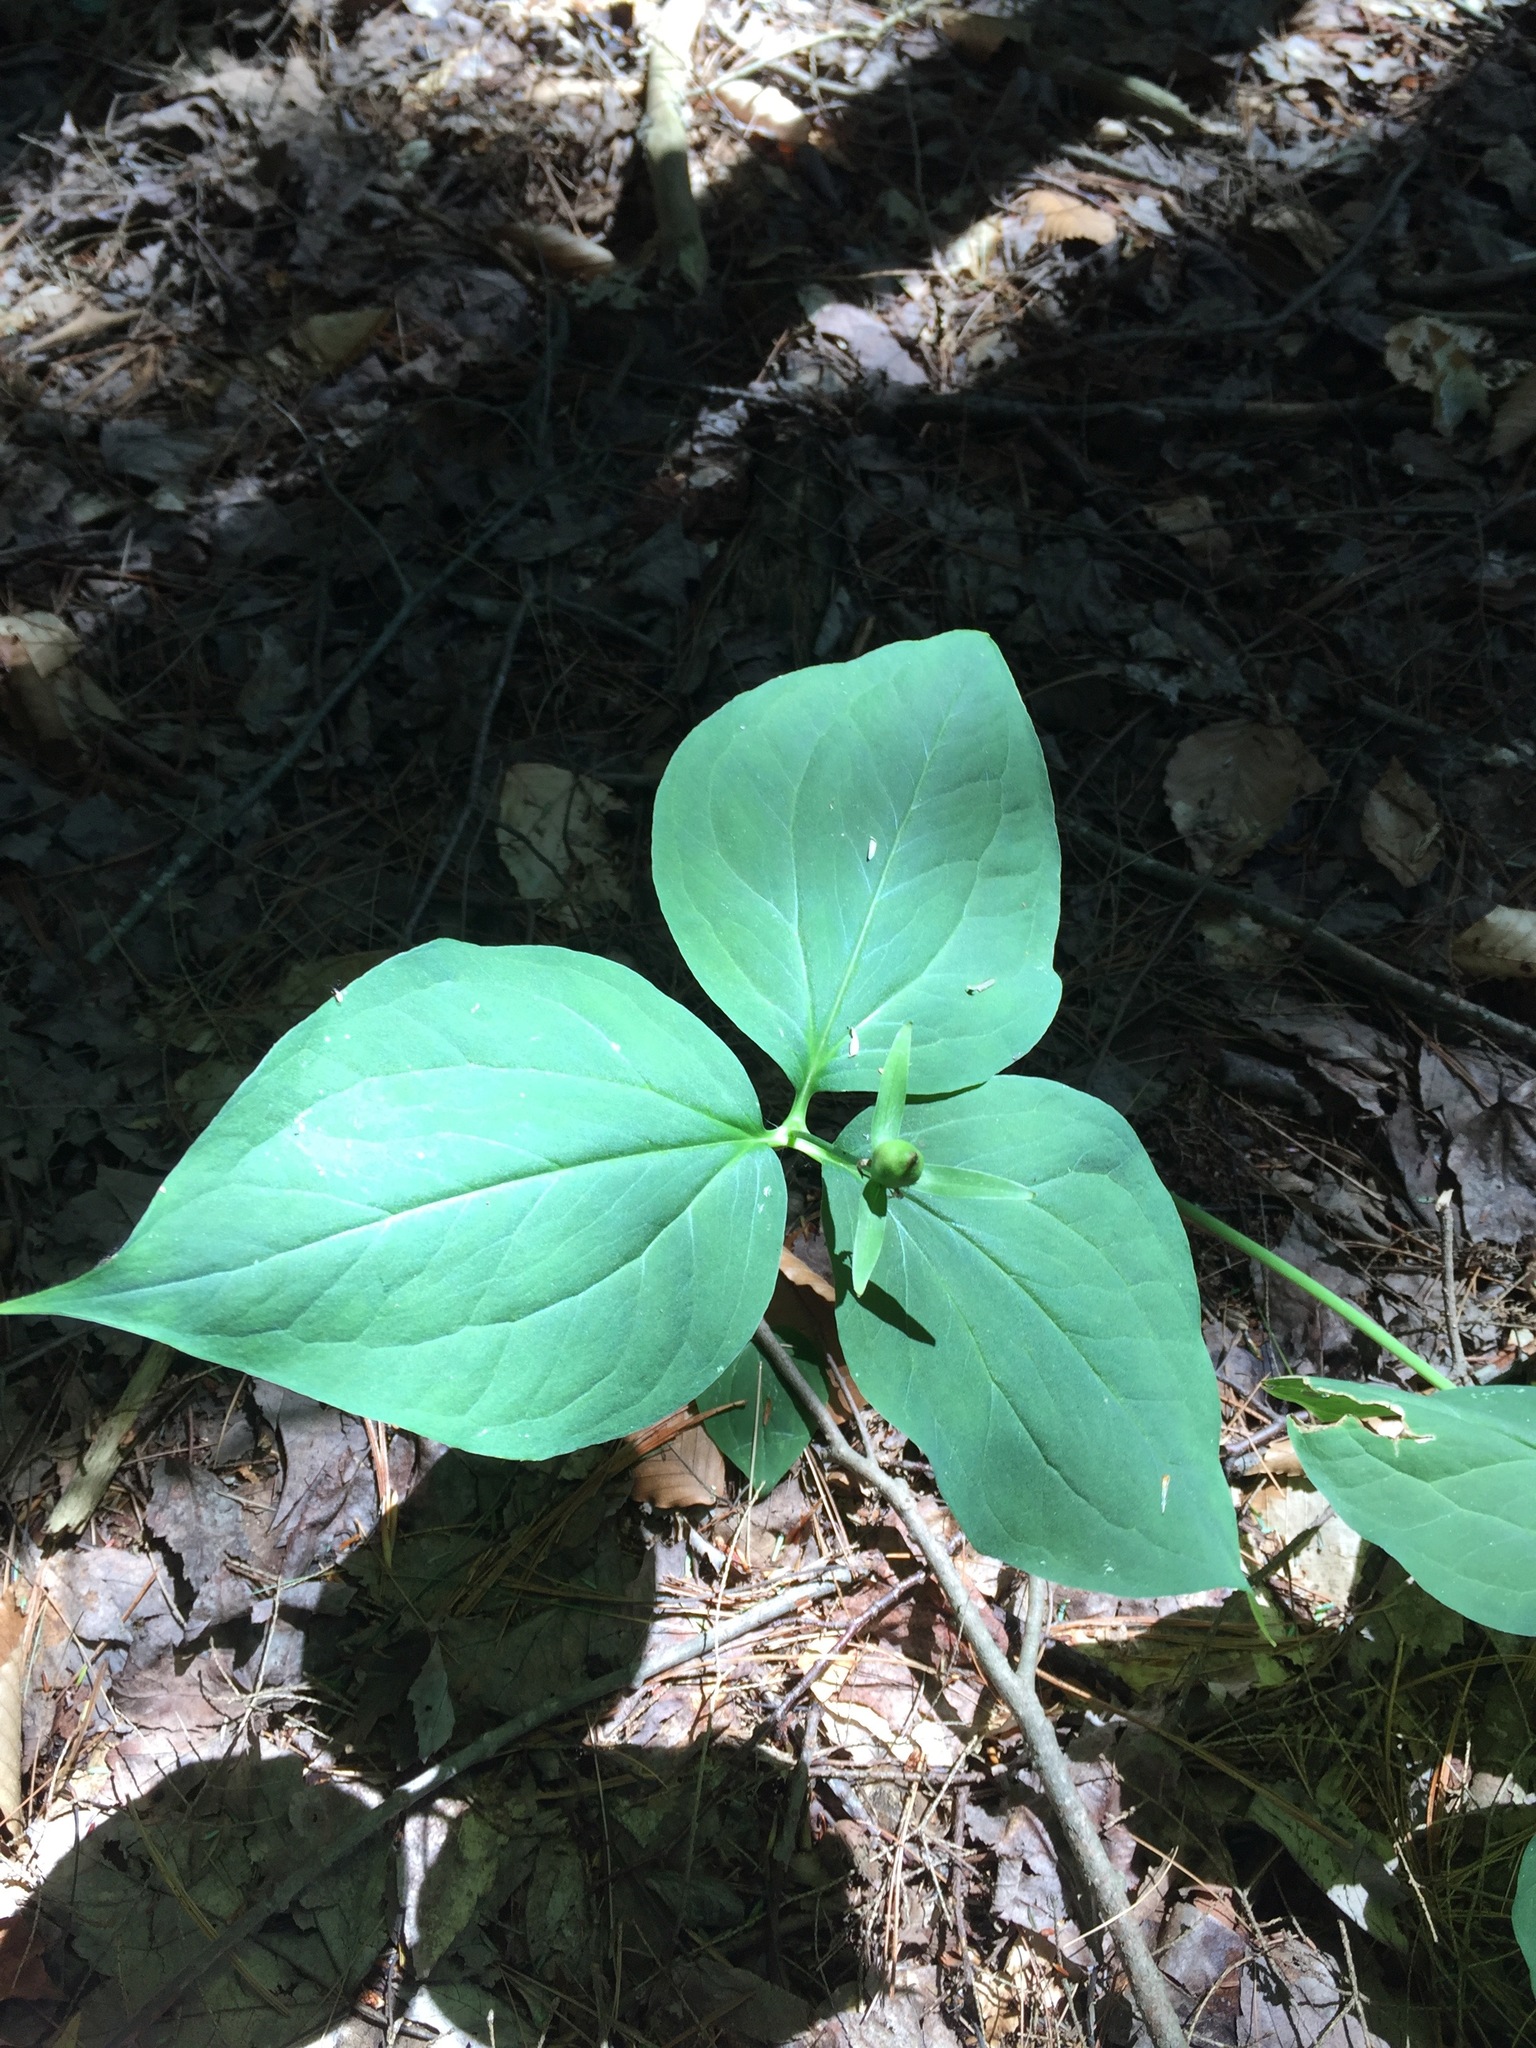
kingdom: Plantae
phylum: Tracheophyta
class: Liliopsida
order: Liliales
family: Melanthiaceae
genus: Trillium
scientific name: Trillium undulatum
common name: Paint trillium
